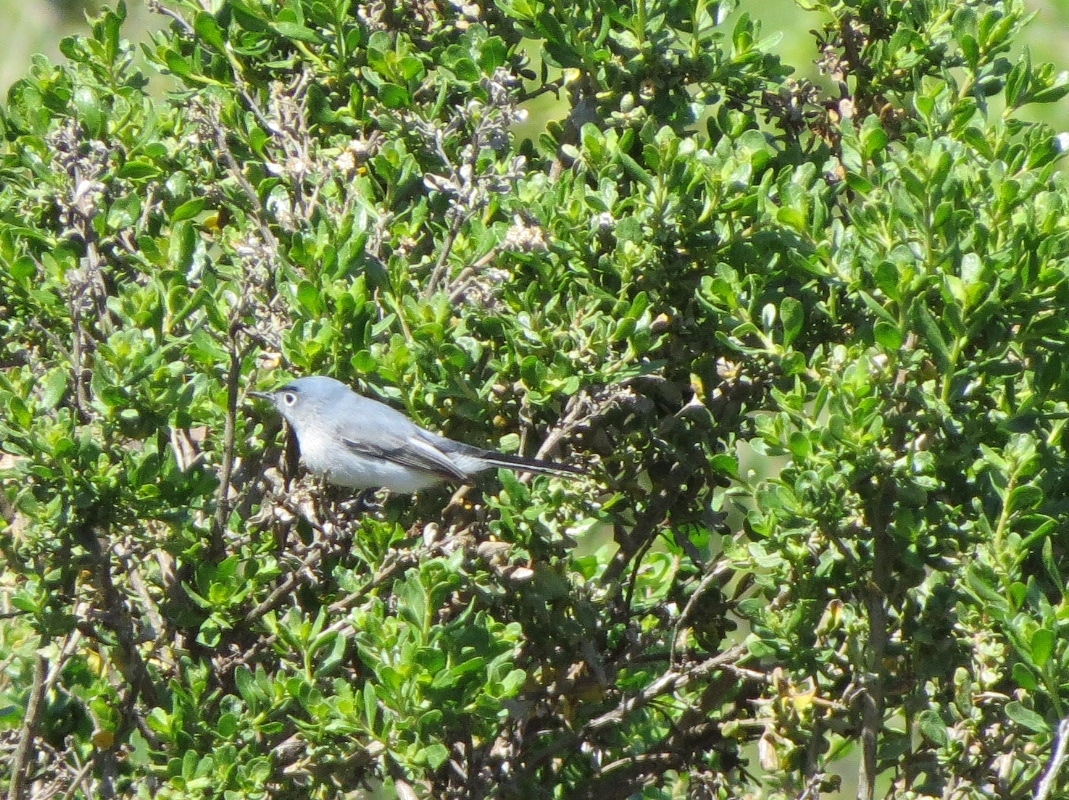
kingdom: Animalia
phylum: Chordata
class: Aves
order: Passeriformes
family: Polioptilidae
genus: Polioptila
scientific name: Polioptila caerulea
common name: Blue-gray gnatcatcher
